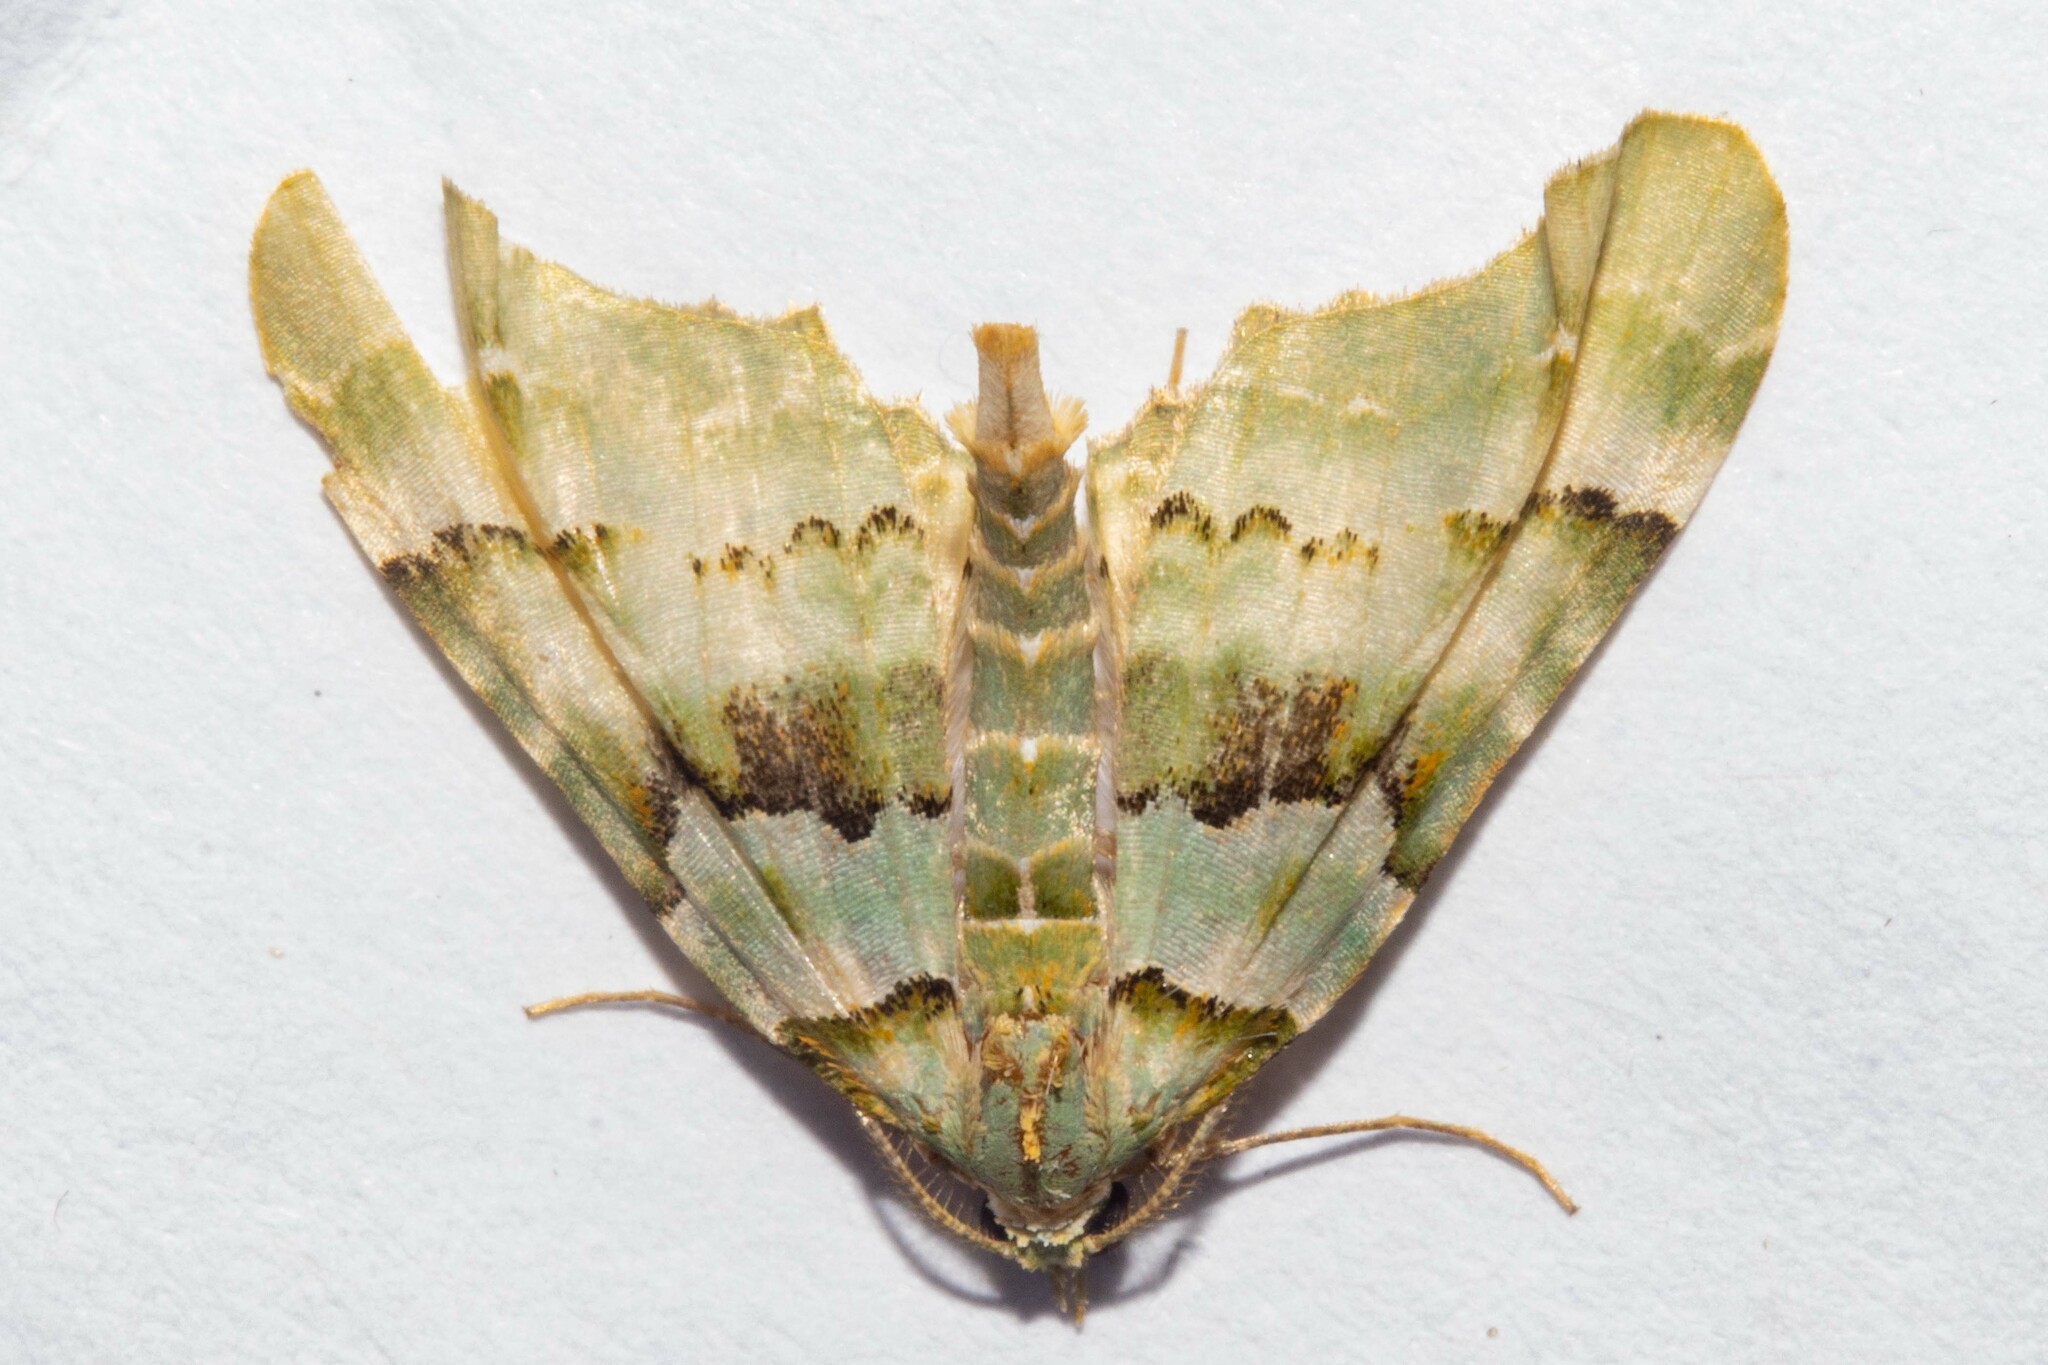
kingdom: Animalia
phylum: Arthropoda
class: Insecta
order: Lepidoptera
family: Geometridae
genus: Elvia
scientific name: Elvia glaucata
